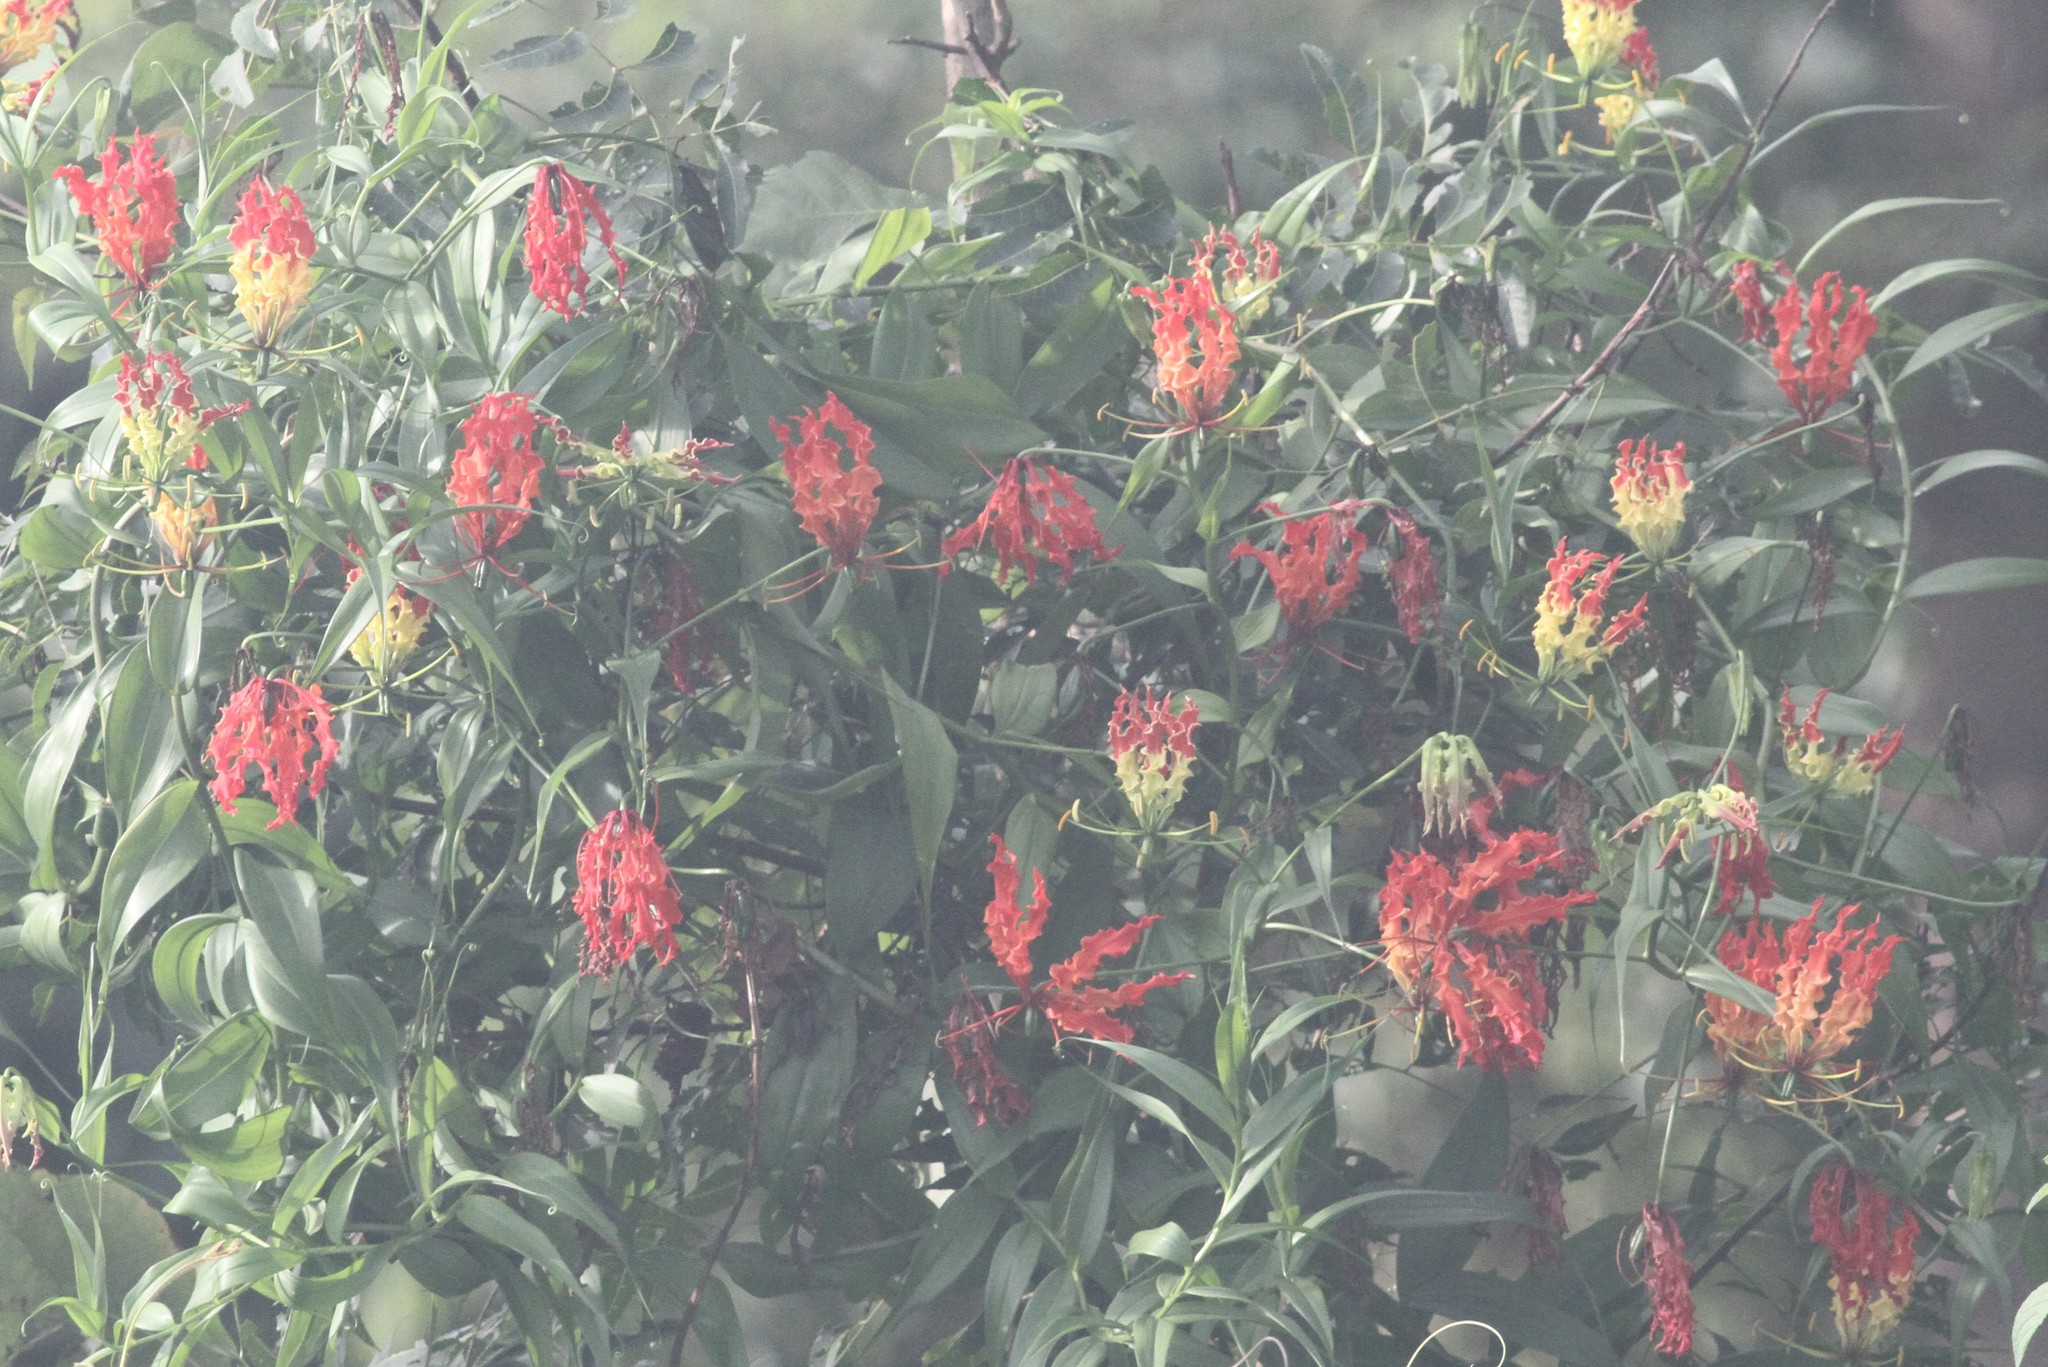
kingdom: Plantae
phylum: Tracheophyta
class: Liliopsida
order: Liliales
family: Colchicaceae
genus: Gloriosa
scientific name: Gloriosa superba
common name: Flame lily
